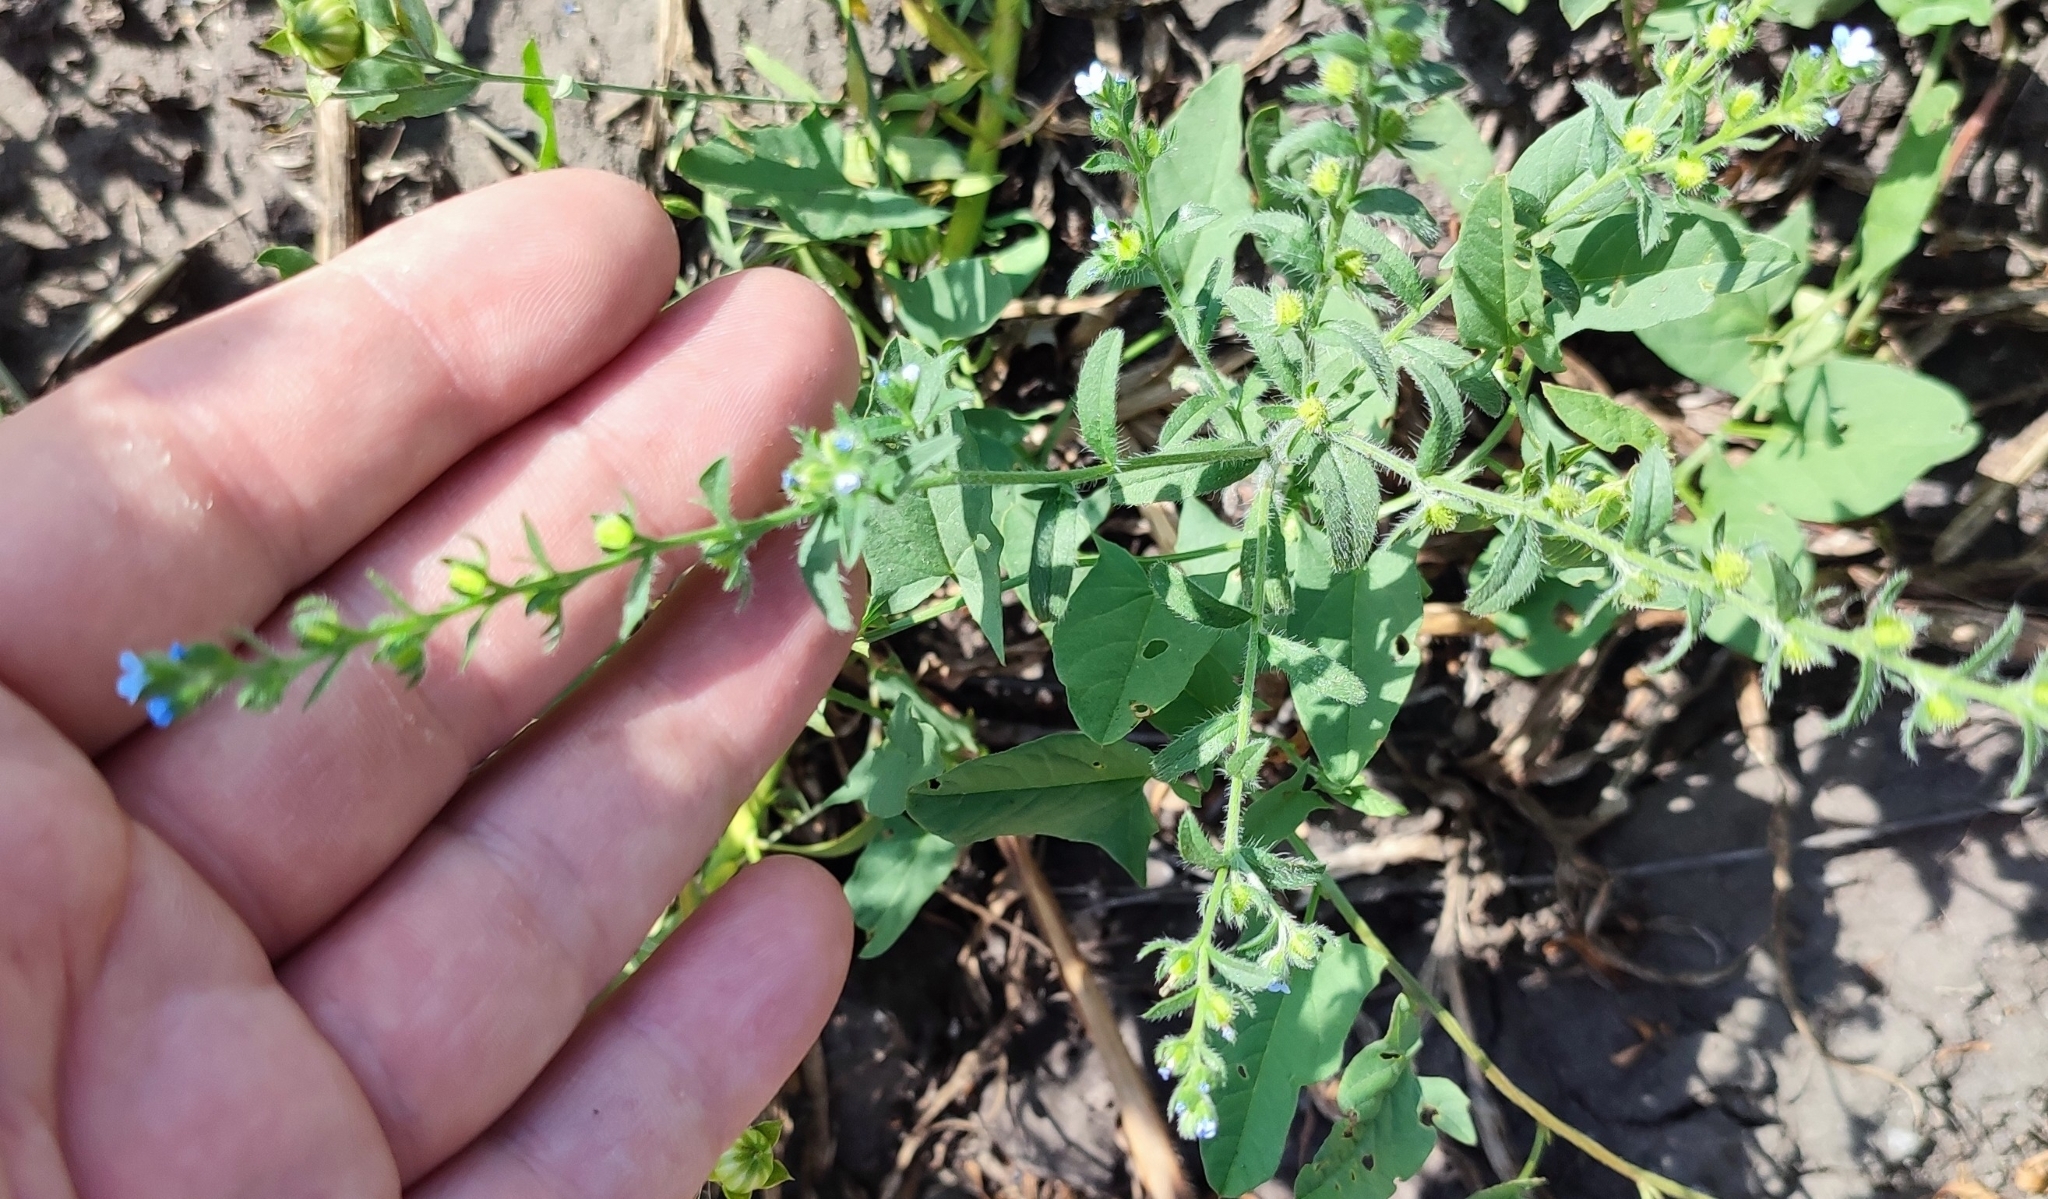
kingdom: Plantae
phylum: Tracheophyta
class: Magnoliopsida
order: Boraginales
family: Boraginaceae
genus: Lappula
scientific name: Lappula squarrosa
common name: European stickseed
